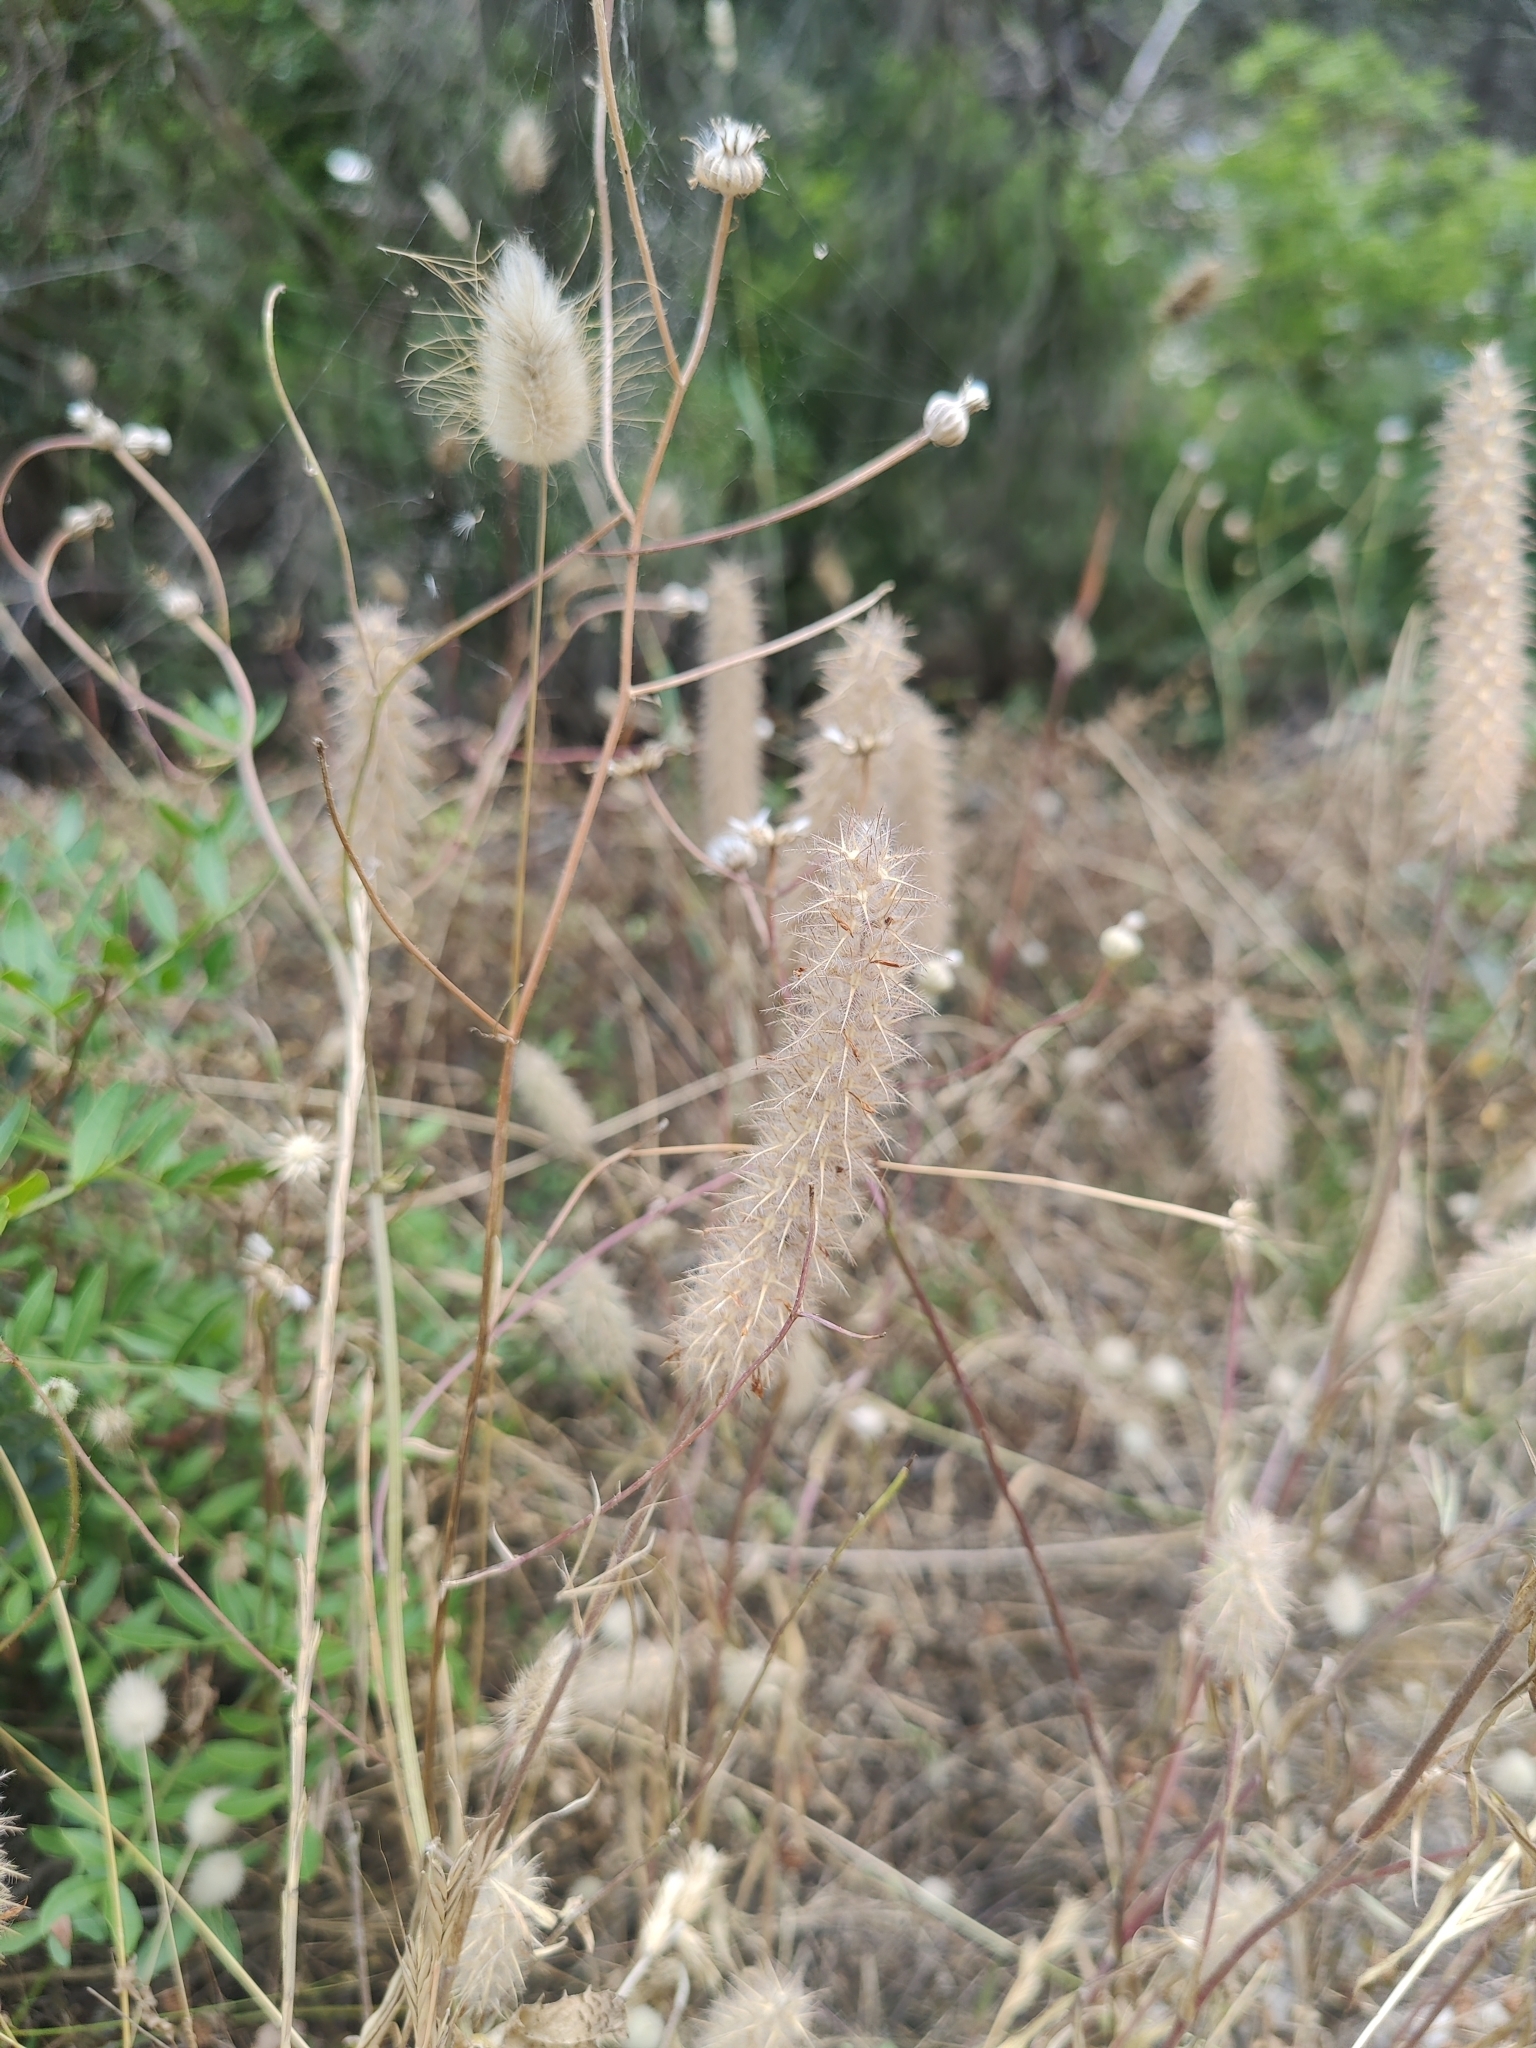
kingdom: Plantae
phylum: Tracheophyta
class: Magnoliopsida
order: Fabales
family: Fabaceae
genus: Trifolium
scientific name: Trifolium angustifolium
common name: Narrow clover
